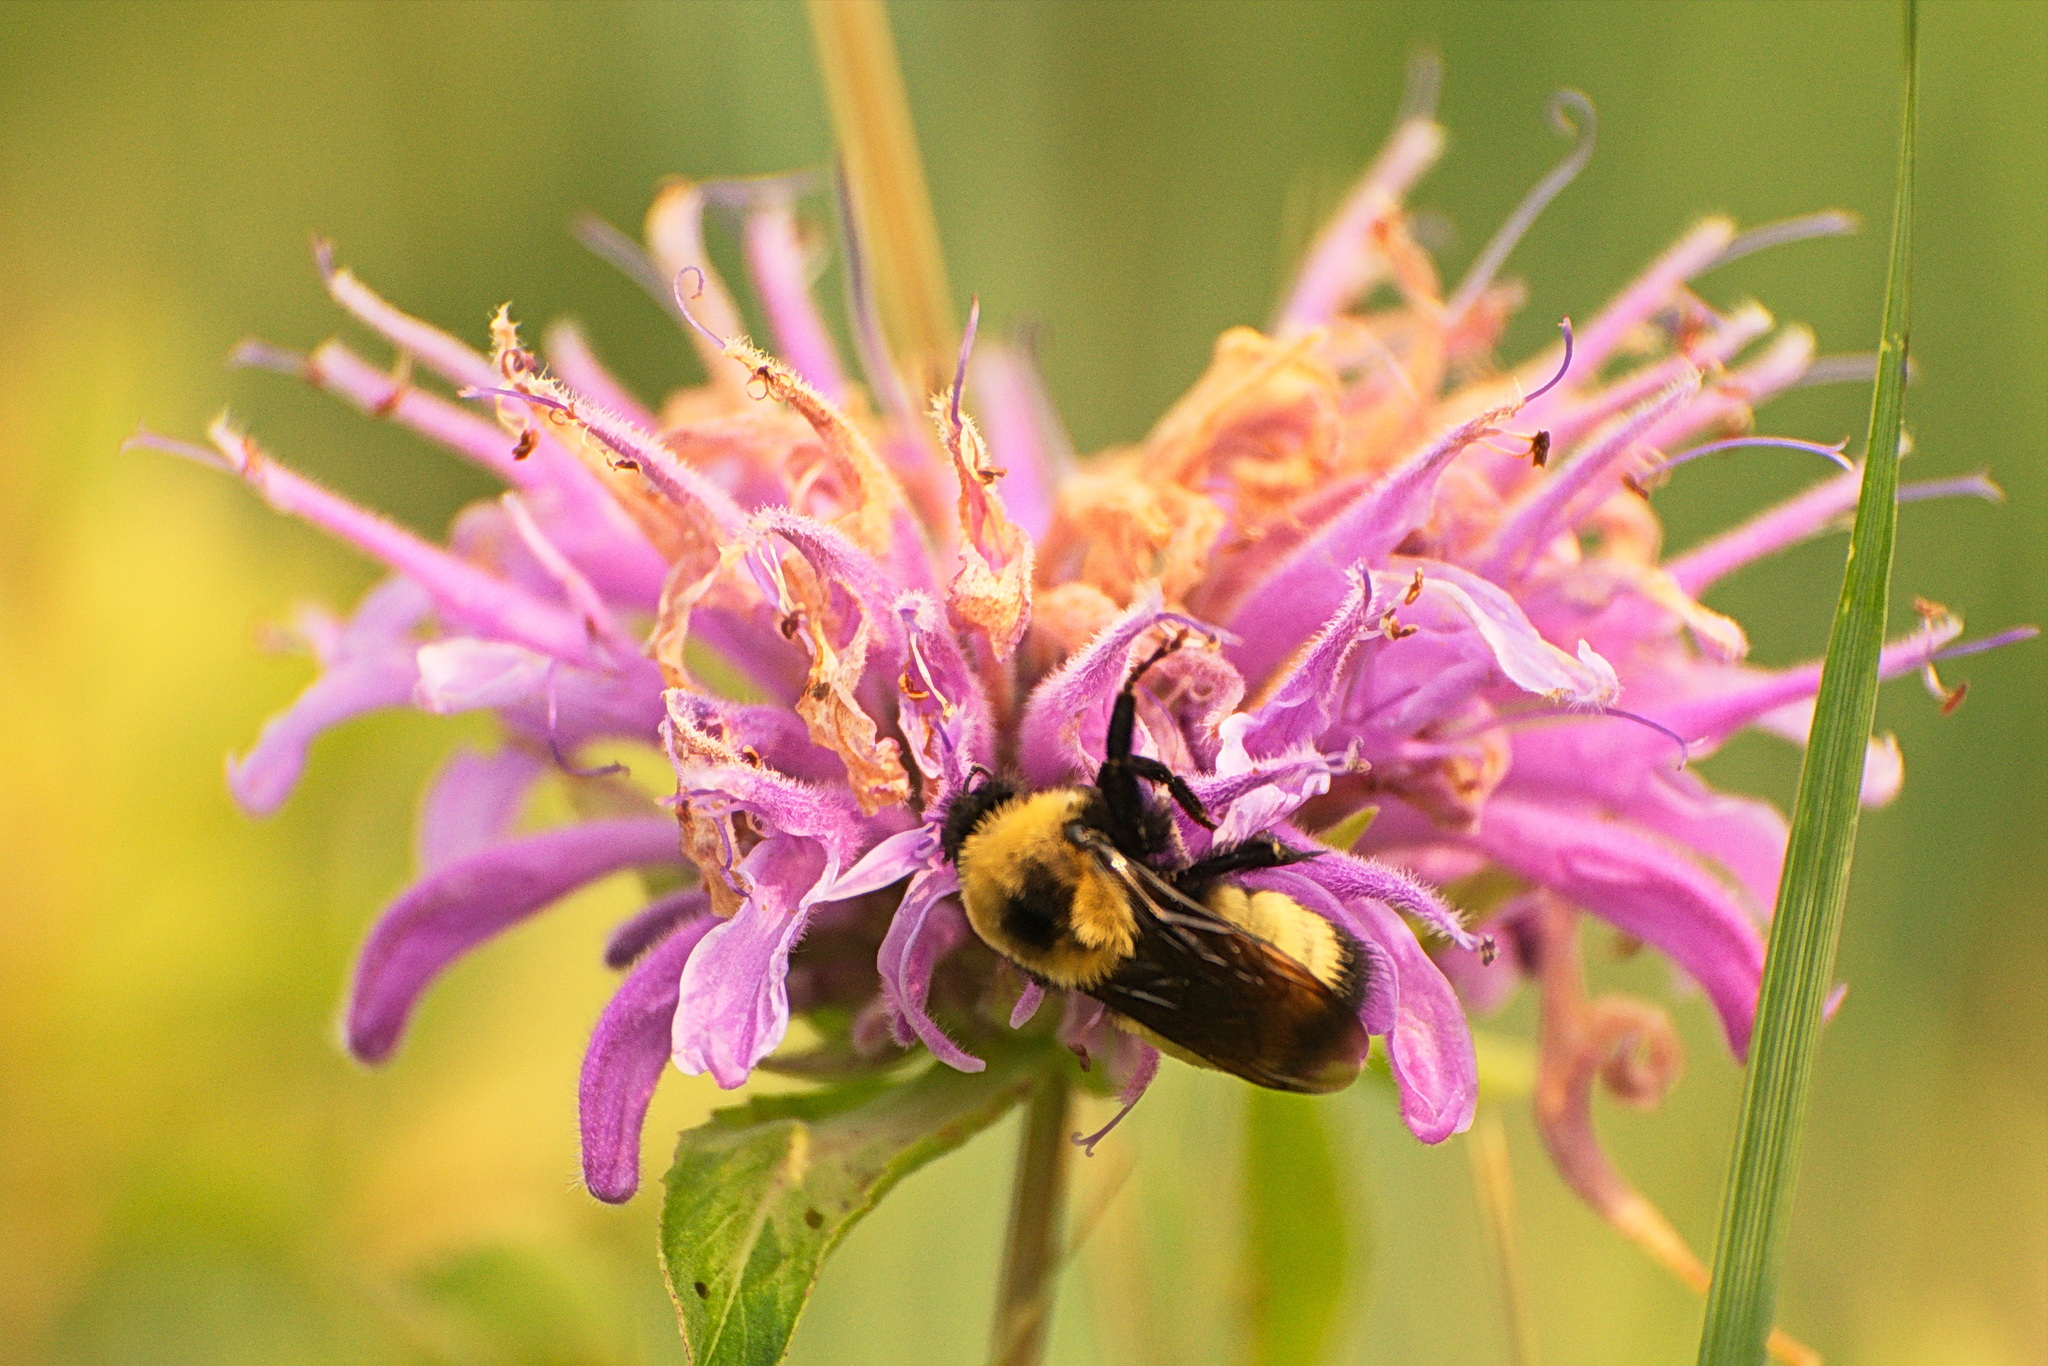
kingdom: Animalia
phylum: Arthropoda
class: Insecta
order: Hymenoptera
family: Apidae
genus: Bombus
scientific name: Bombus nevadensis
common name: Nevada bumble bee
